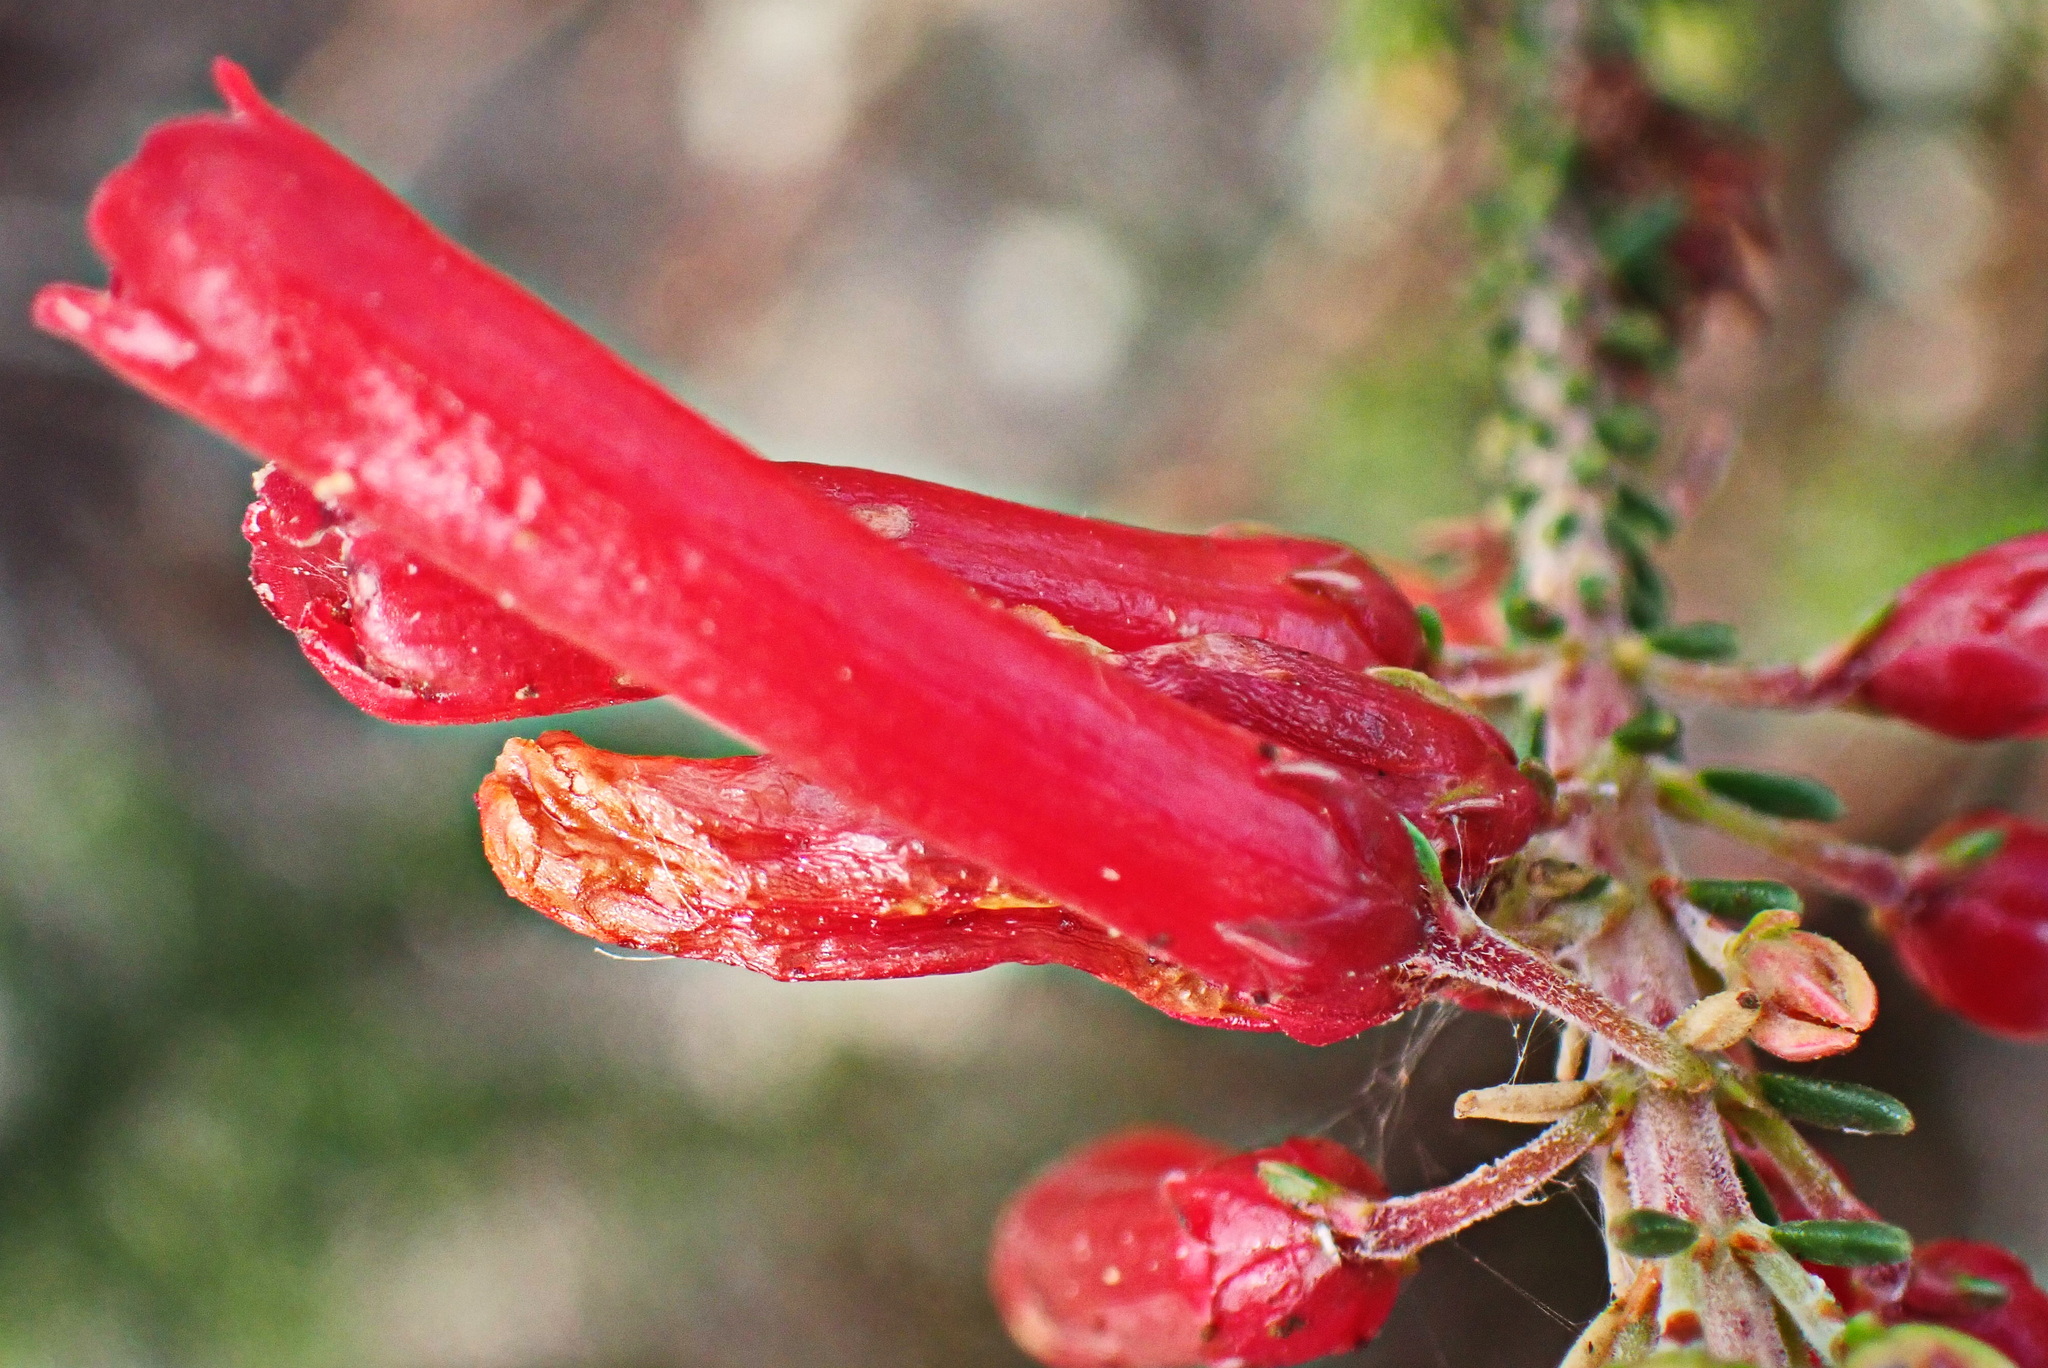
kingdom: Plantae
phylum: Tracheophyta
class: Magnoliopsida
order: Ericales
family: Ericaceae
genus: Erica
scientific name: Erica regia
